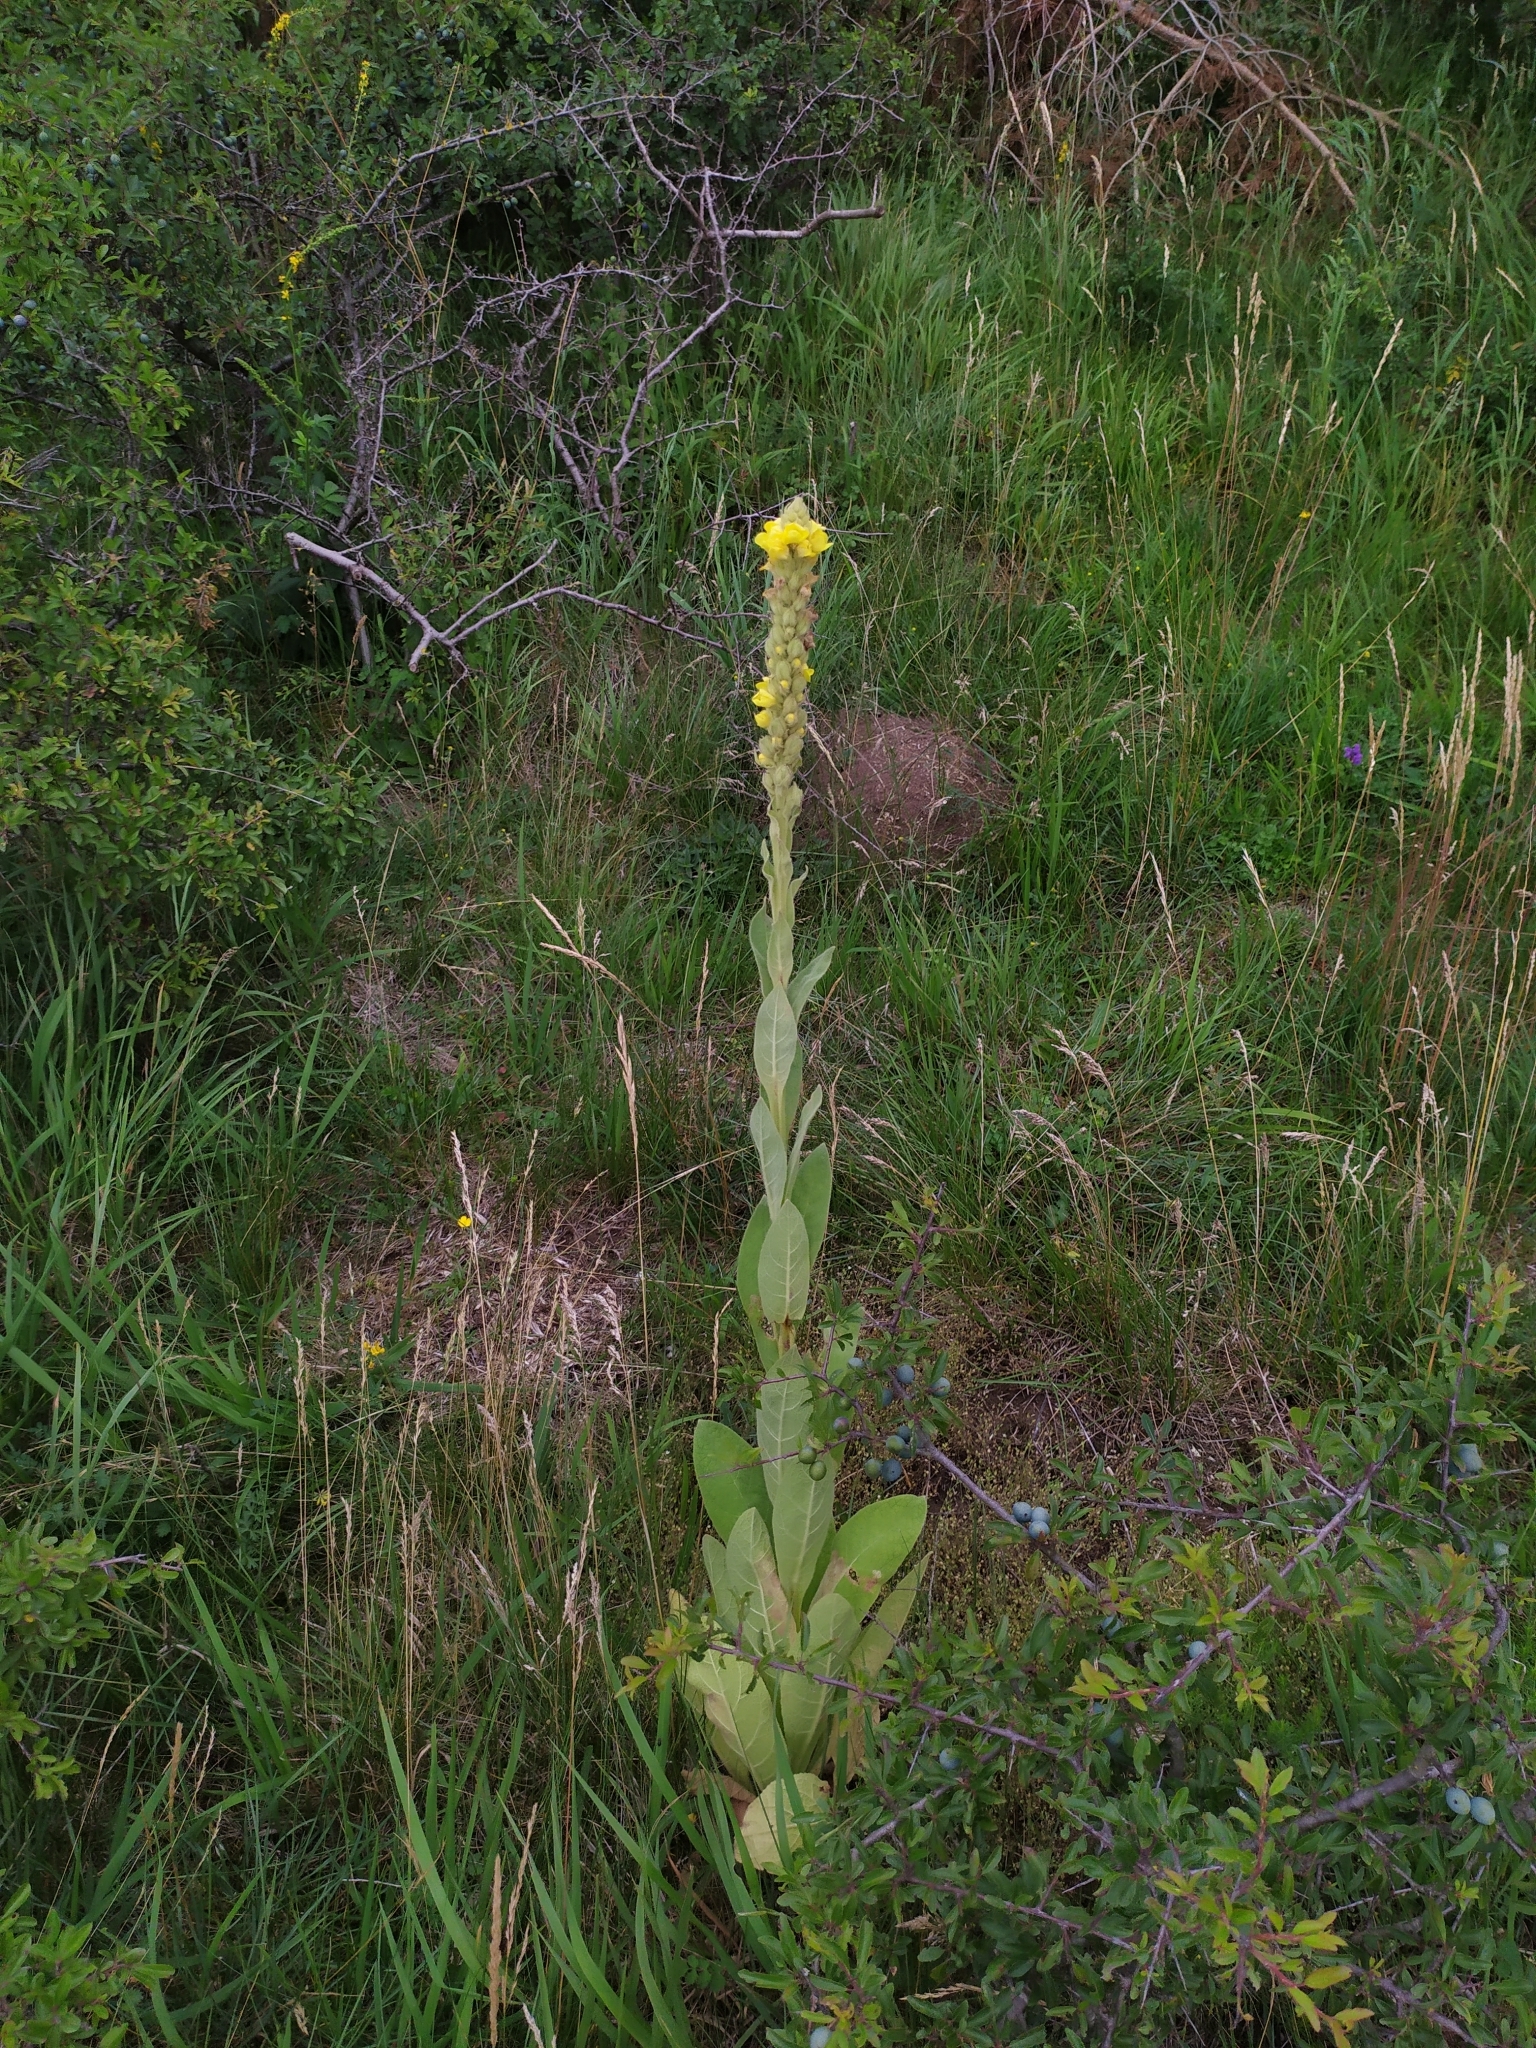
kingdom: Plantae
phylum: Tracheophyta
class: Magnoliopsida
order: Lamiales
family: Scrophulariaceae
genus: Verbascum
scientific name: Verbascum thapsus
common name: Common mullein
